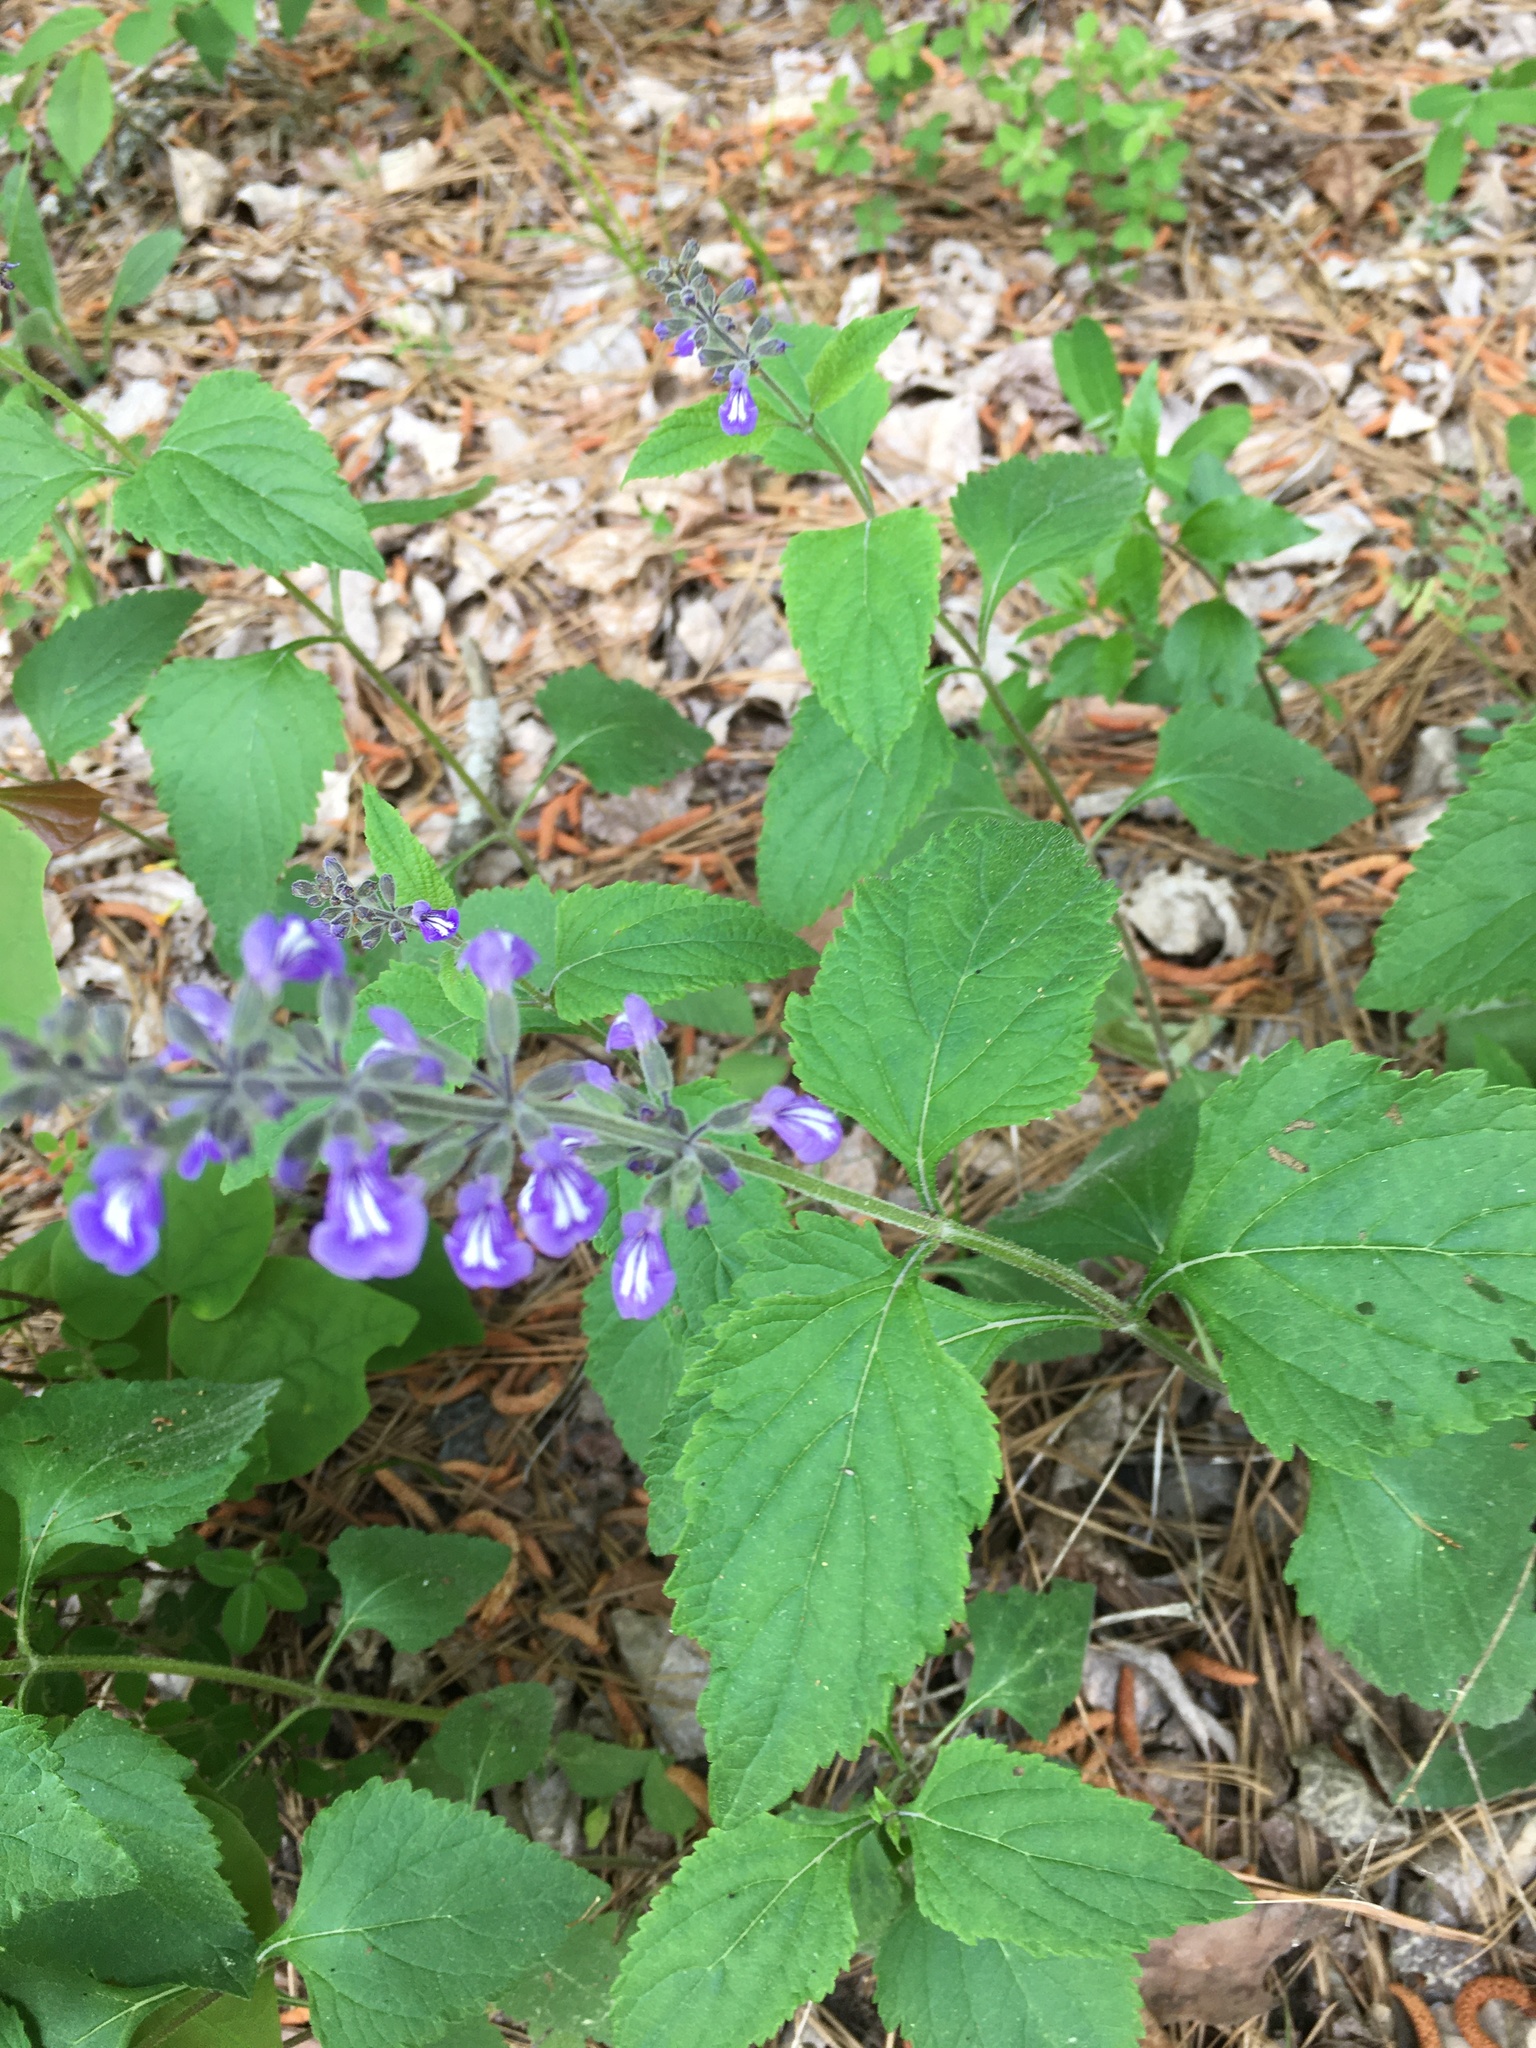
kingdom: Plantae
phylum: Tracheophyta
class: Magnoliopsida
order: Lamiales
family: Lamiaceae
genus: Salvia
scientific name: Salvia urticifolia
